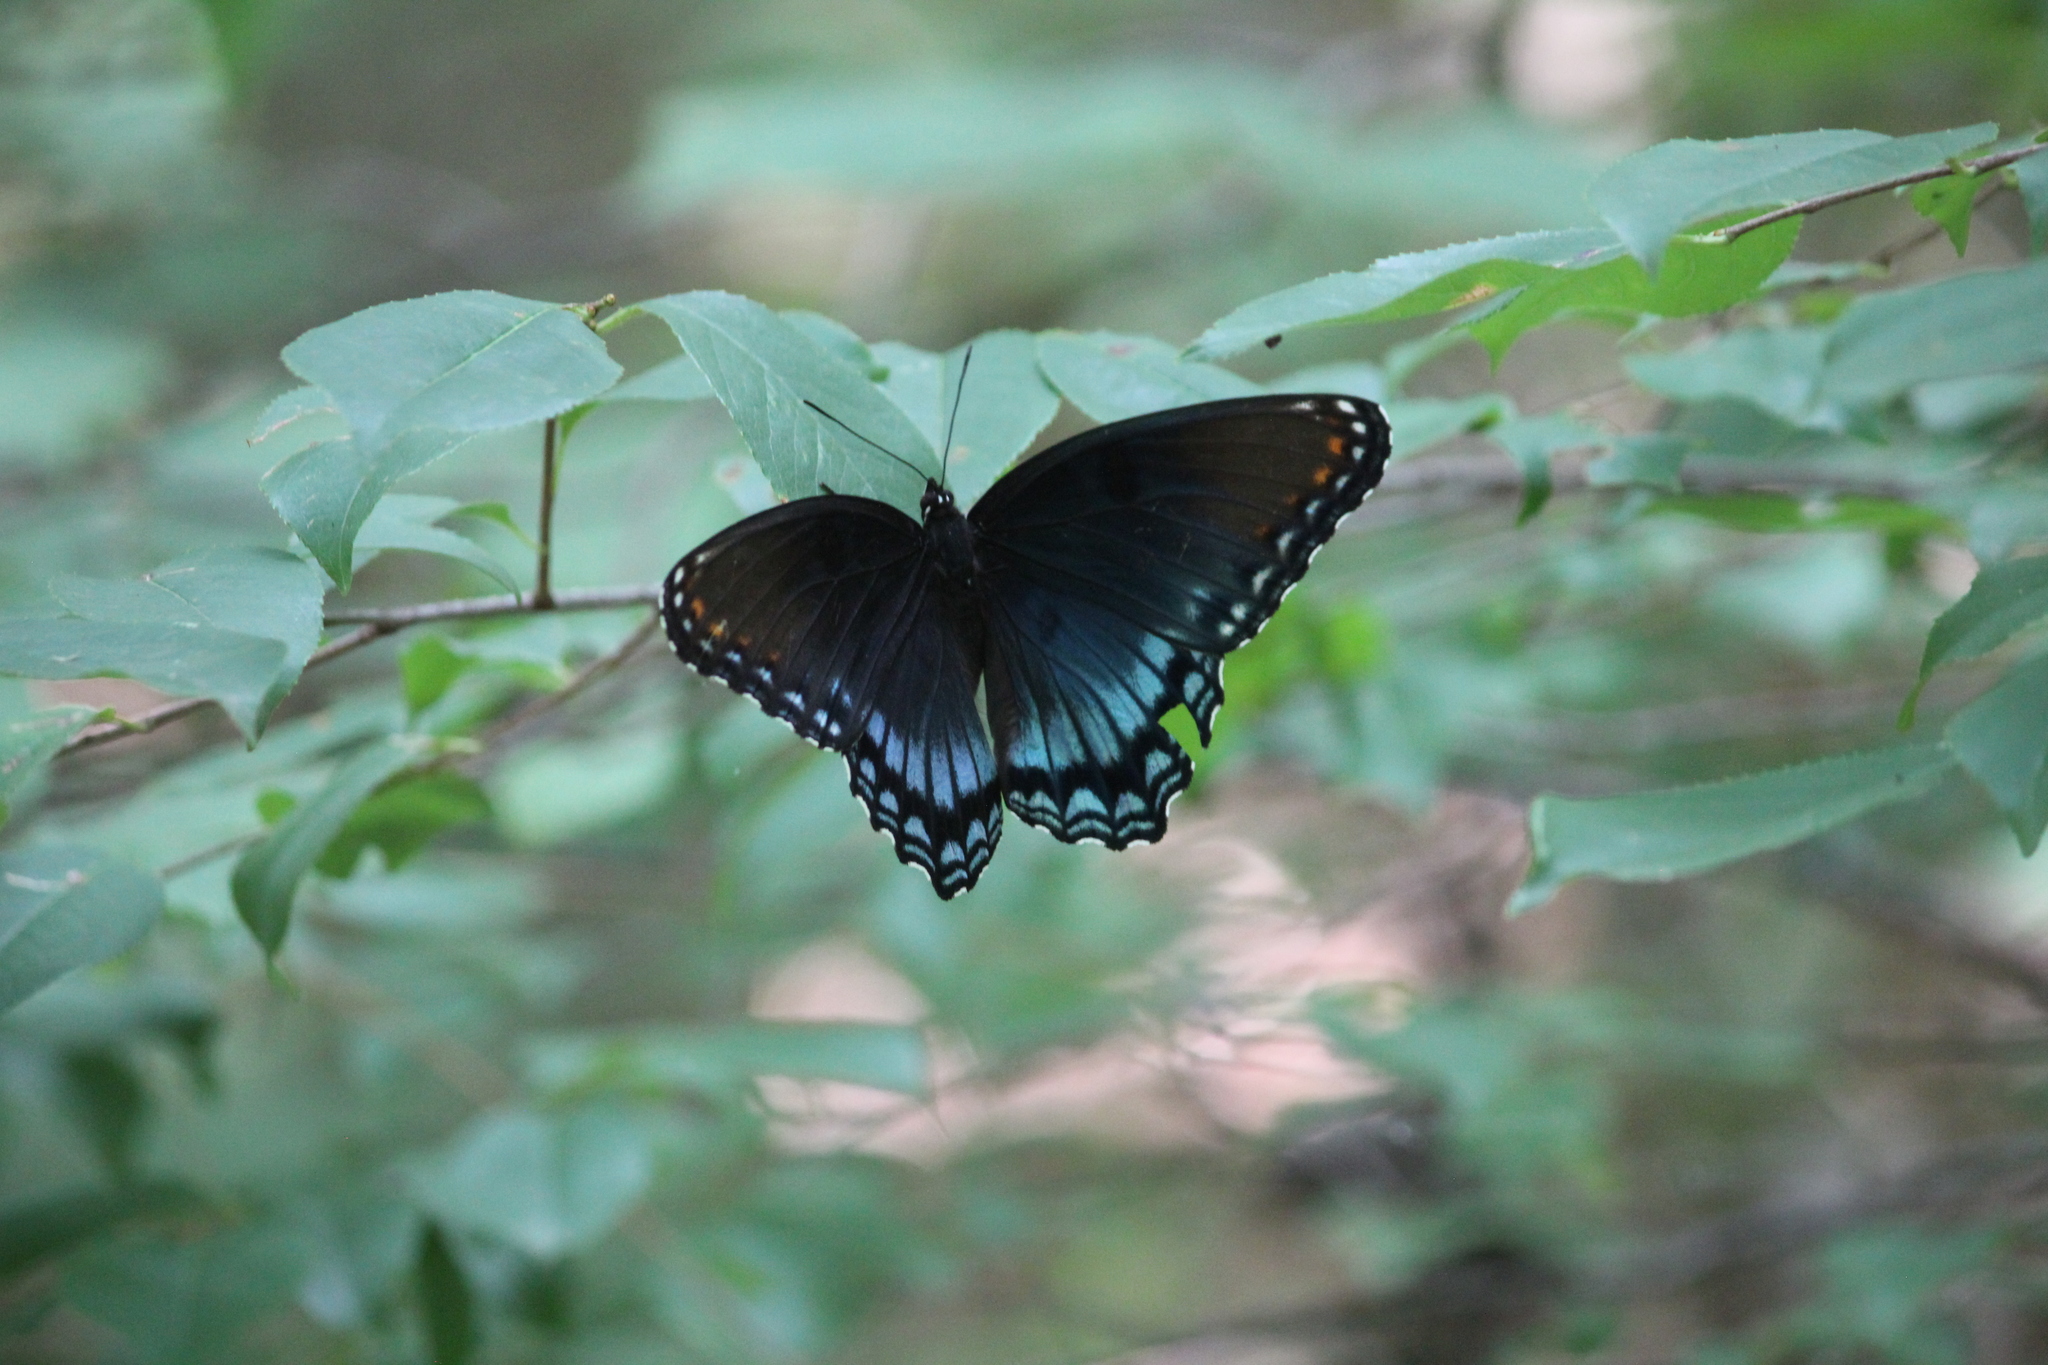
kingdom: Animalia
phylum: Arthropoda
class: Insecta
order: Lepidoptera
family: Nymphalidae
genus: Limenitis
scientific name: Limenitis astyanax
